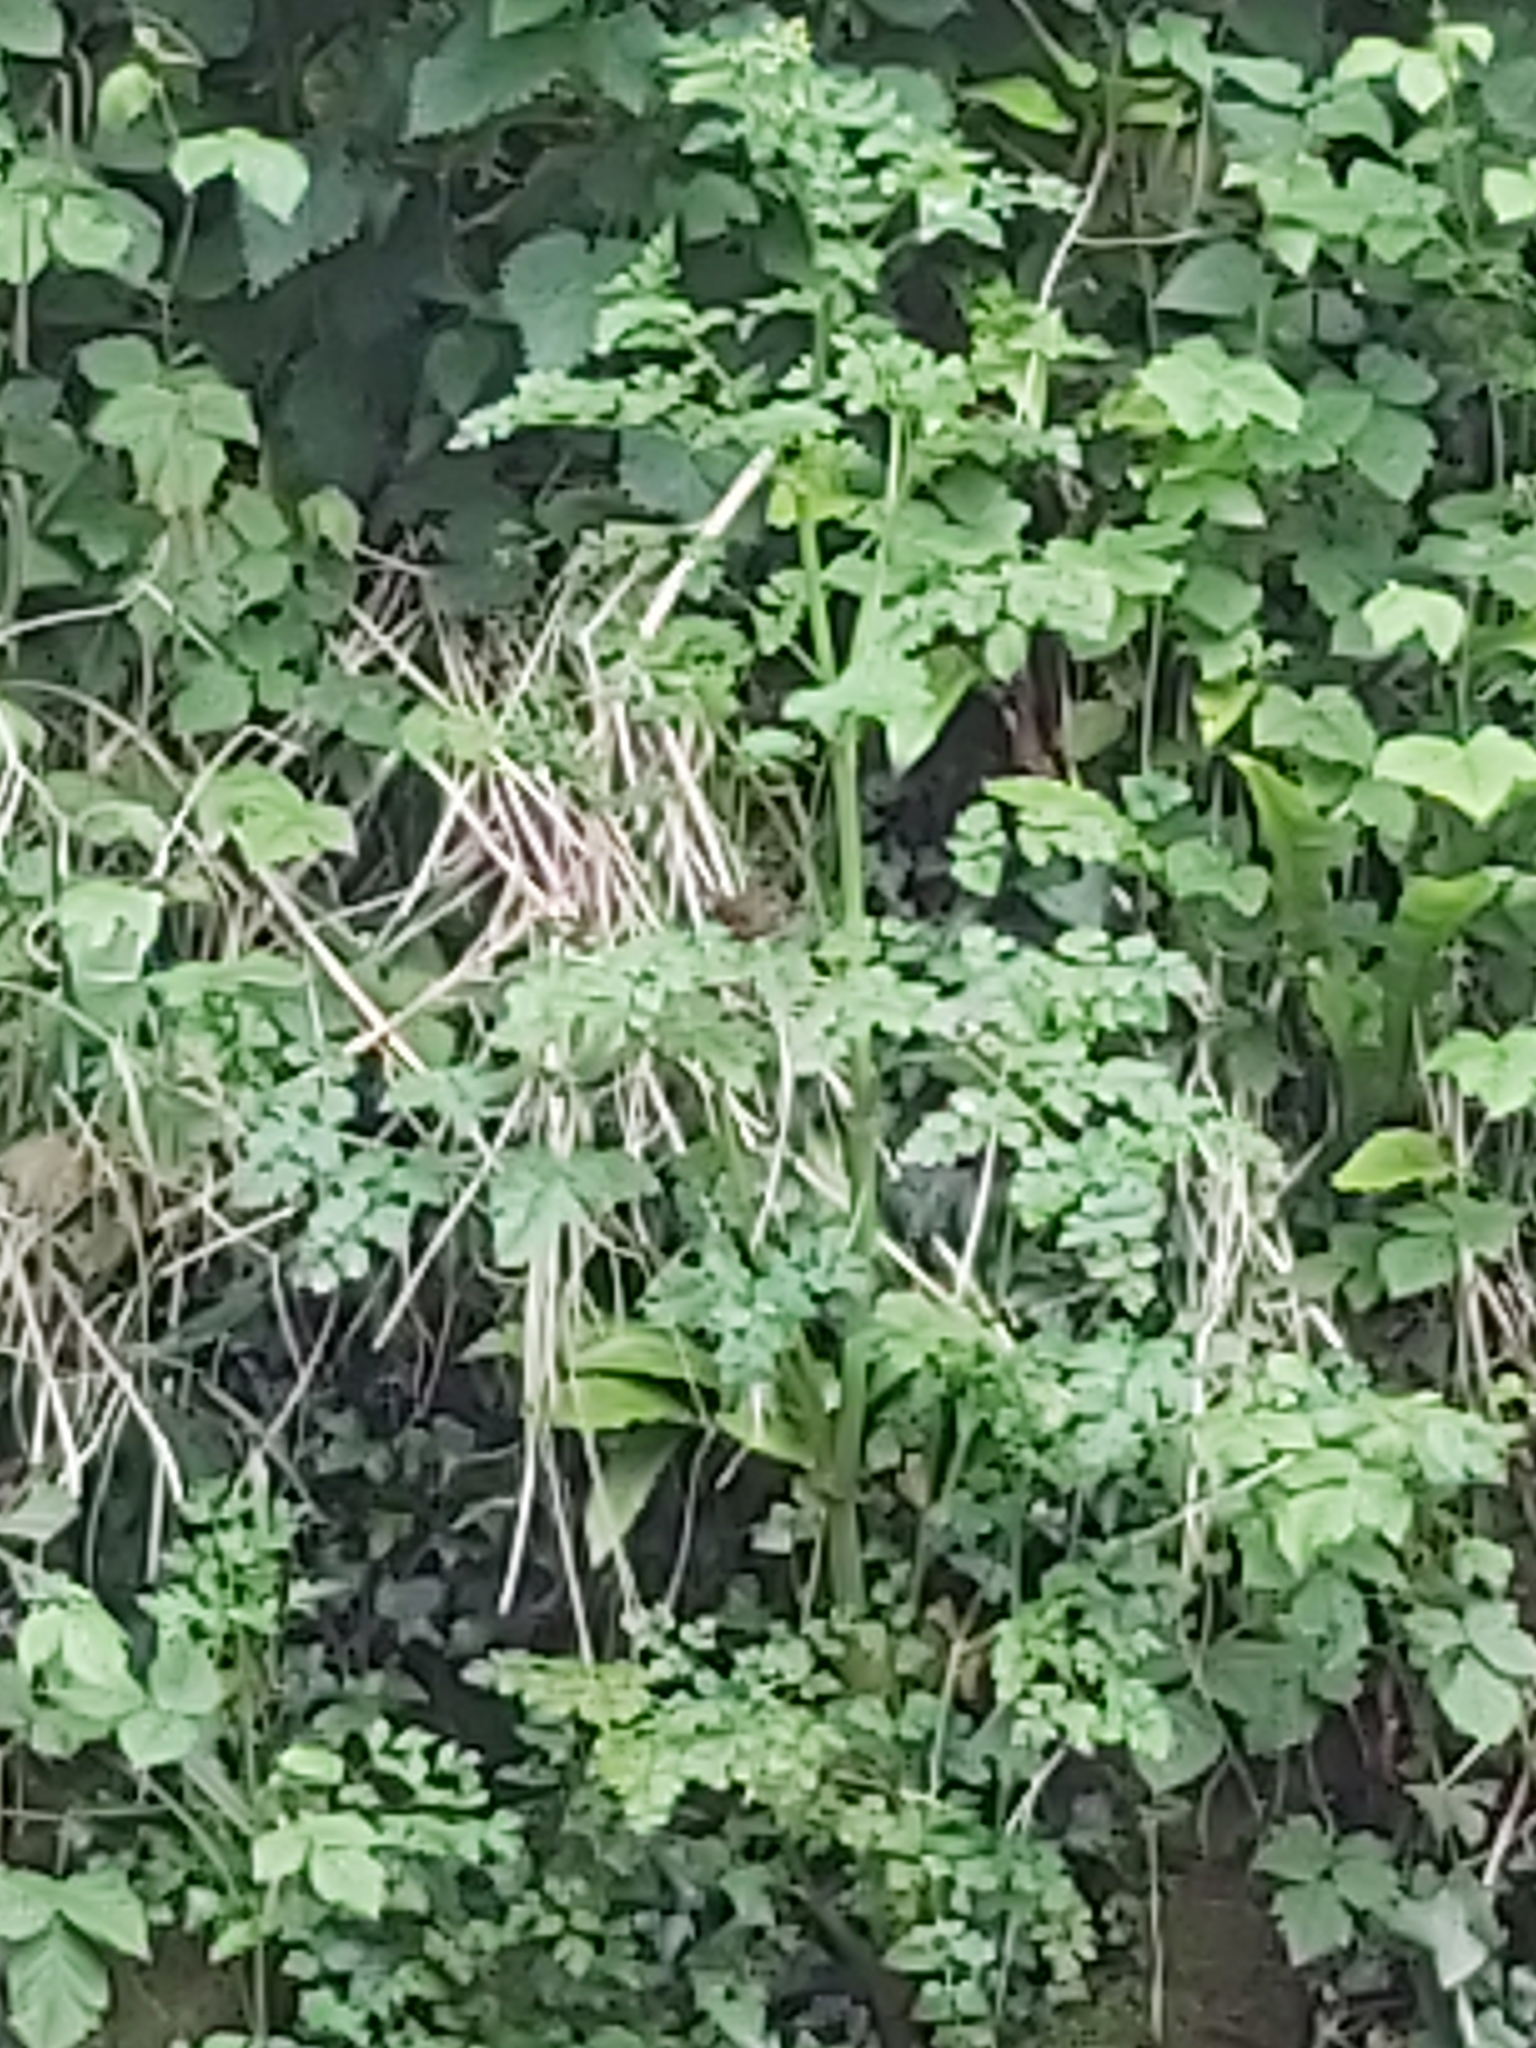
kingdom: Animalia
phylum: Chordata
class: Aves
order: Passeriformes
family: Troglodytidae
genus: Troglodytes
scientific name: Troglodytes troglodytes
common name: Eurasian wren
